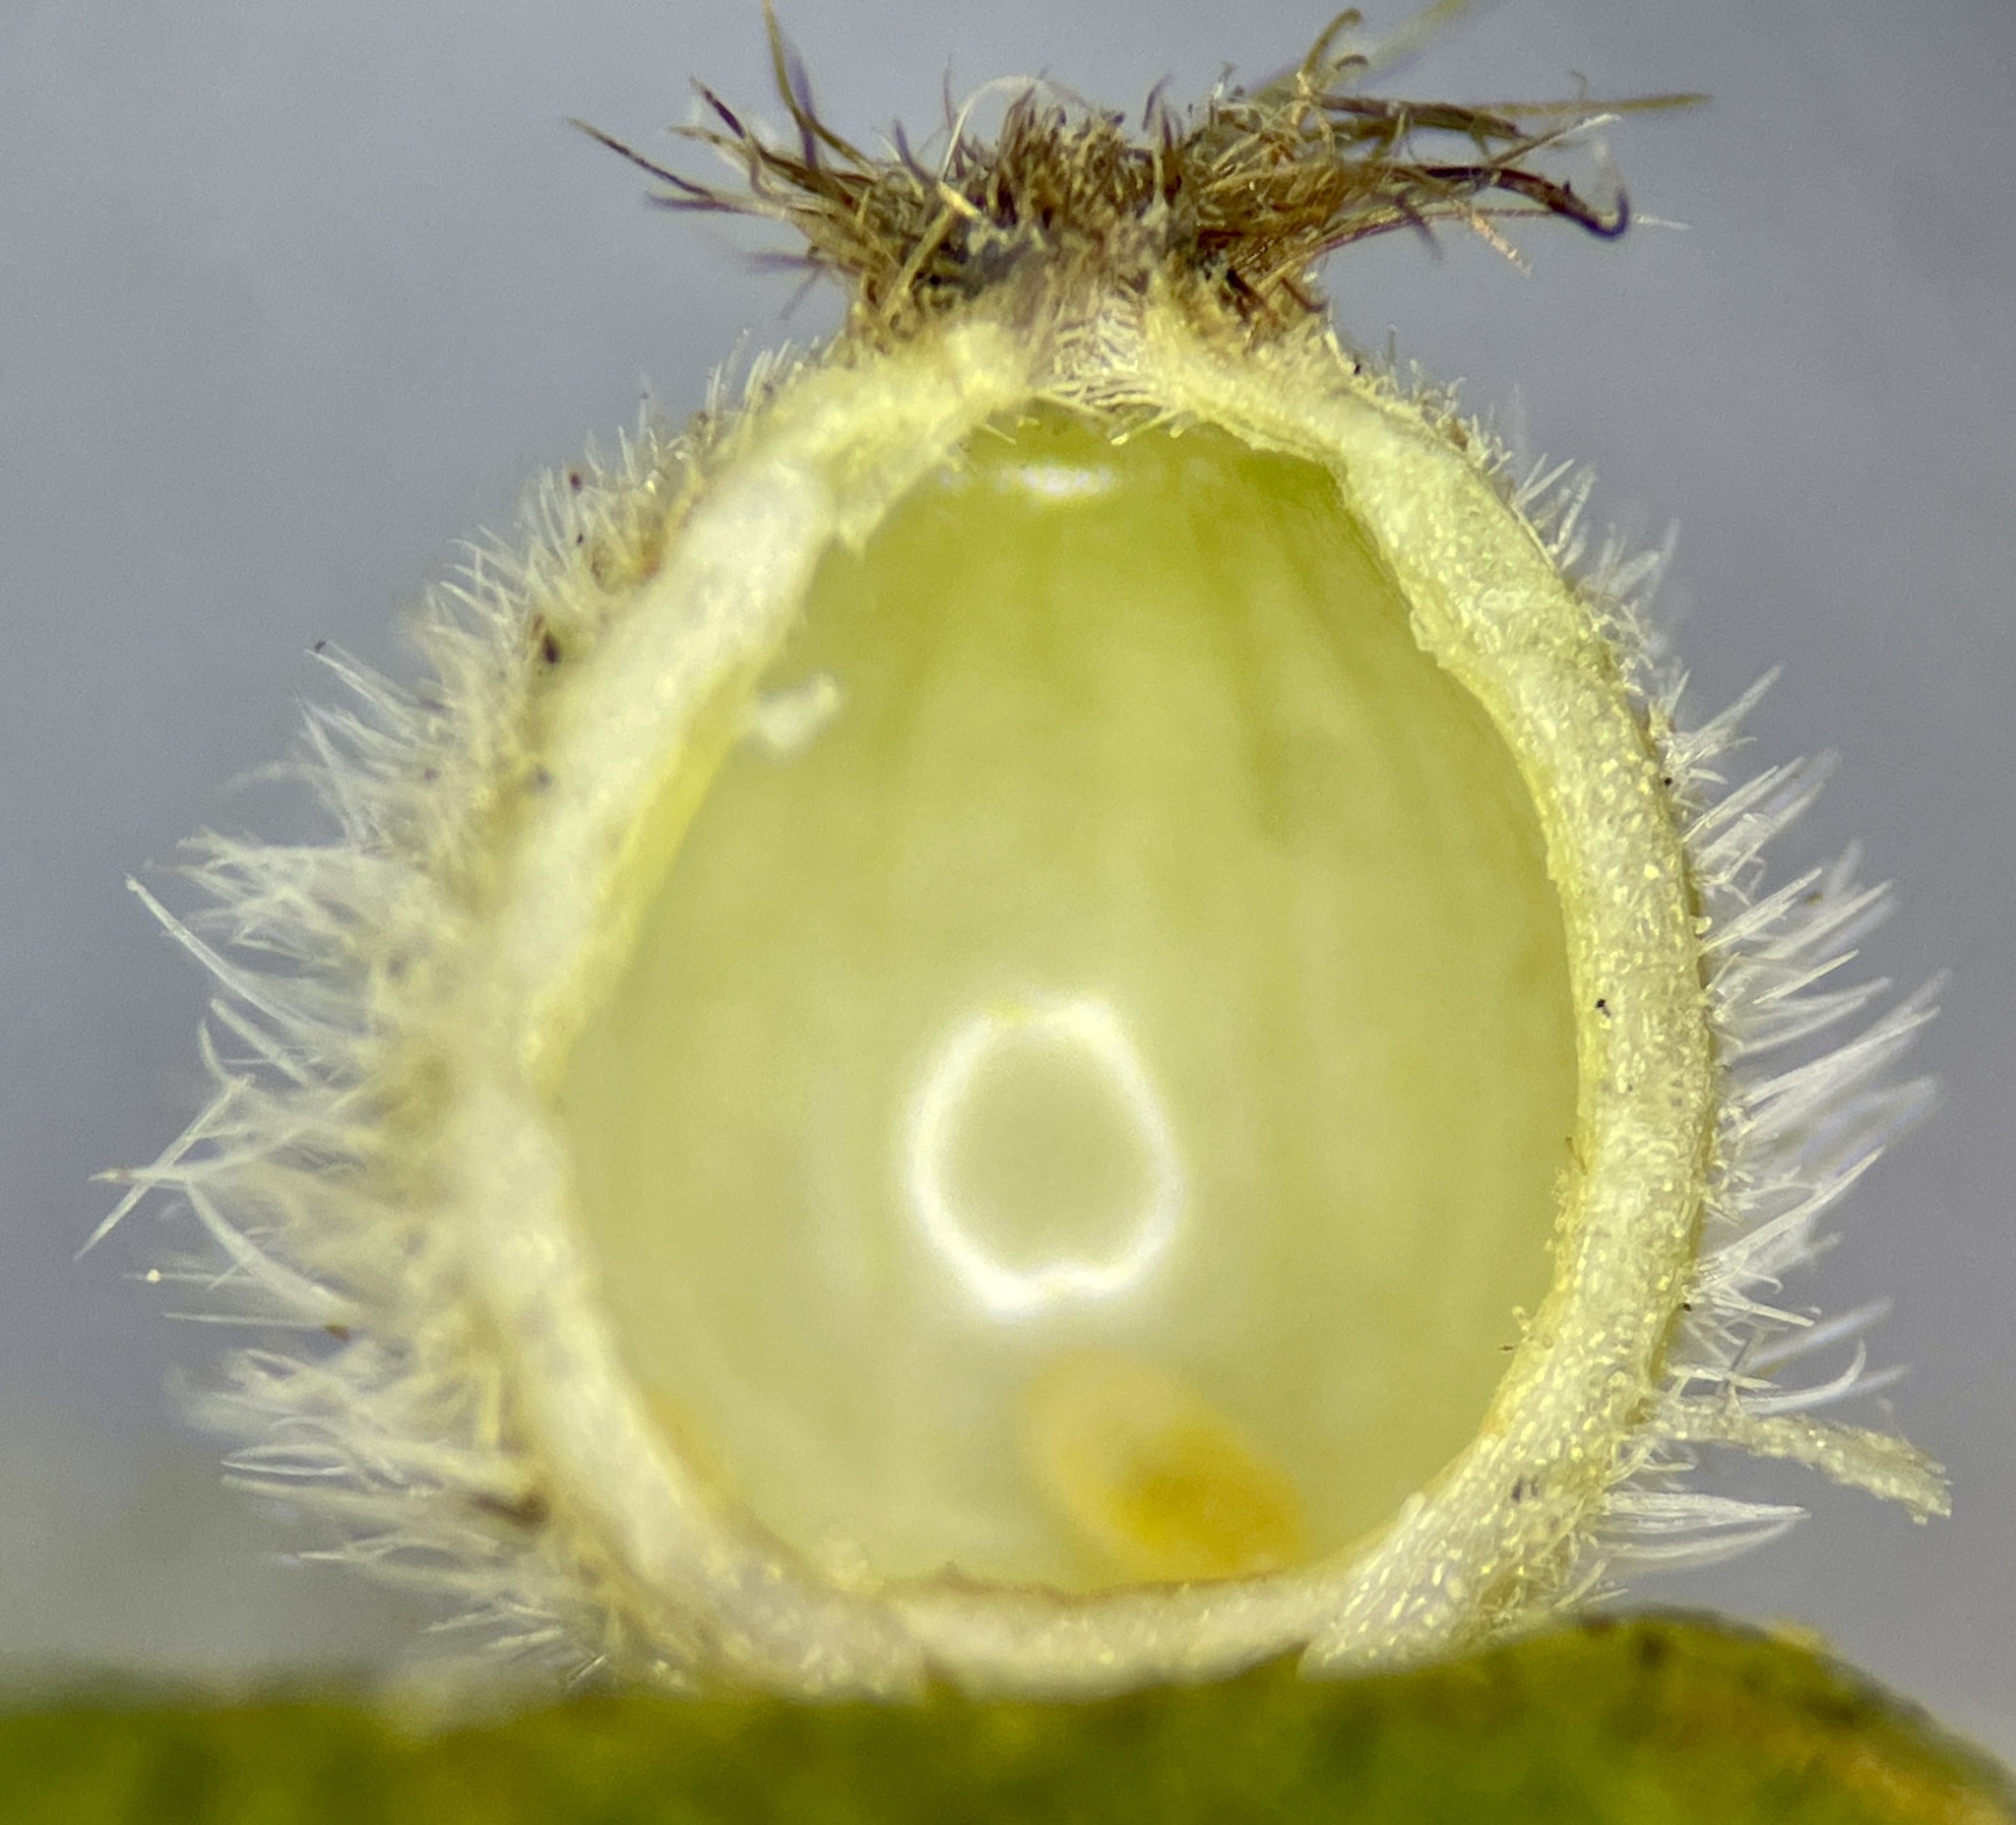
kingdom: Animalia
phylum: Arthropoda
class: Insecta
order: Diptera
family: Cecidomyiidae
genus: Caryomyia
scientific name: Caryomyia hirtidolium
